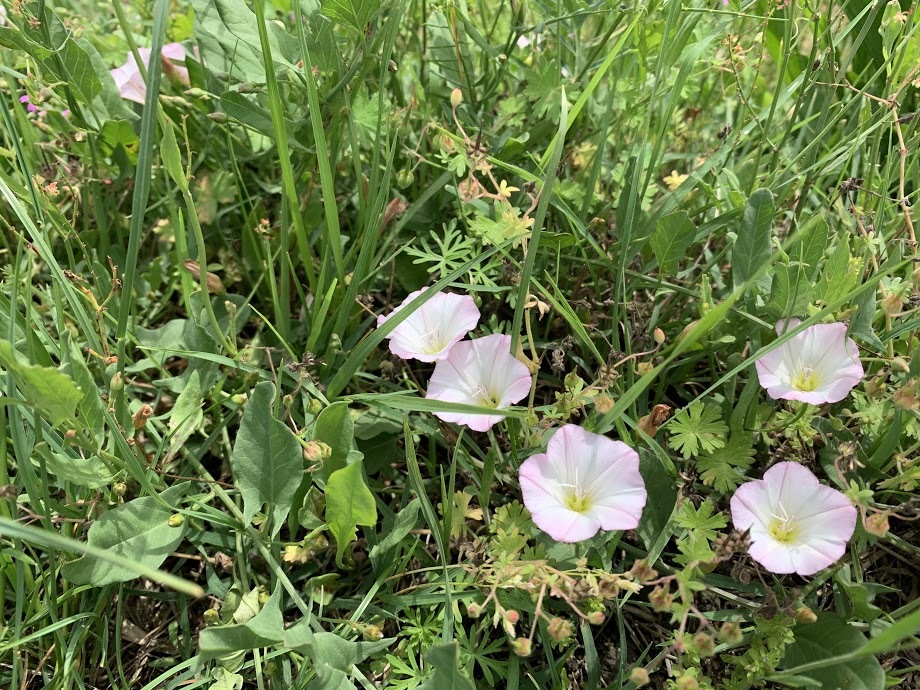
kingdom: Plantae
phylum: Tracheophyta
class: Magnoliopsida
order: Solanales
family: Convolvulaceae
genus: Convolvulus
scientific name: Convolvulus arvensis
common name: Field bindweed
